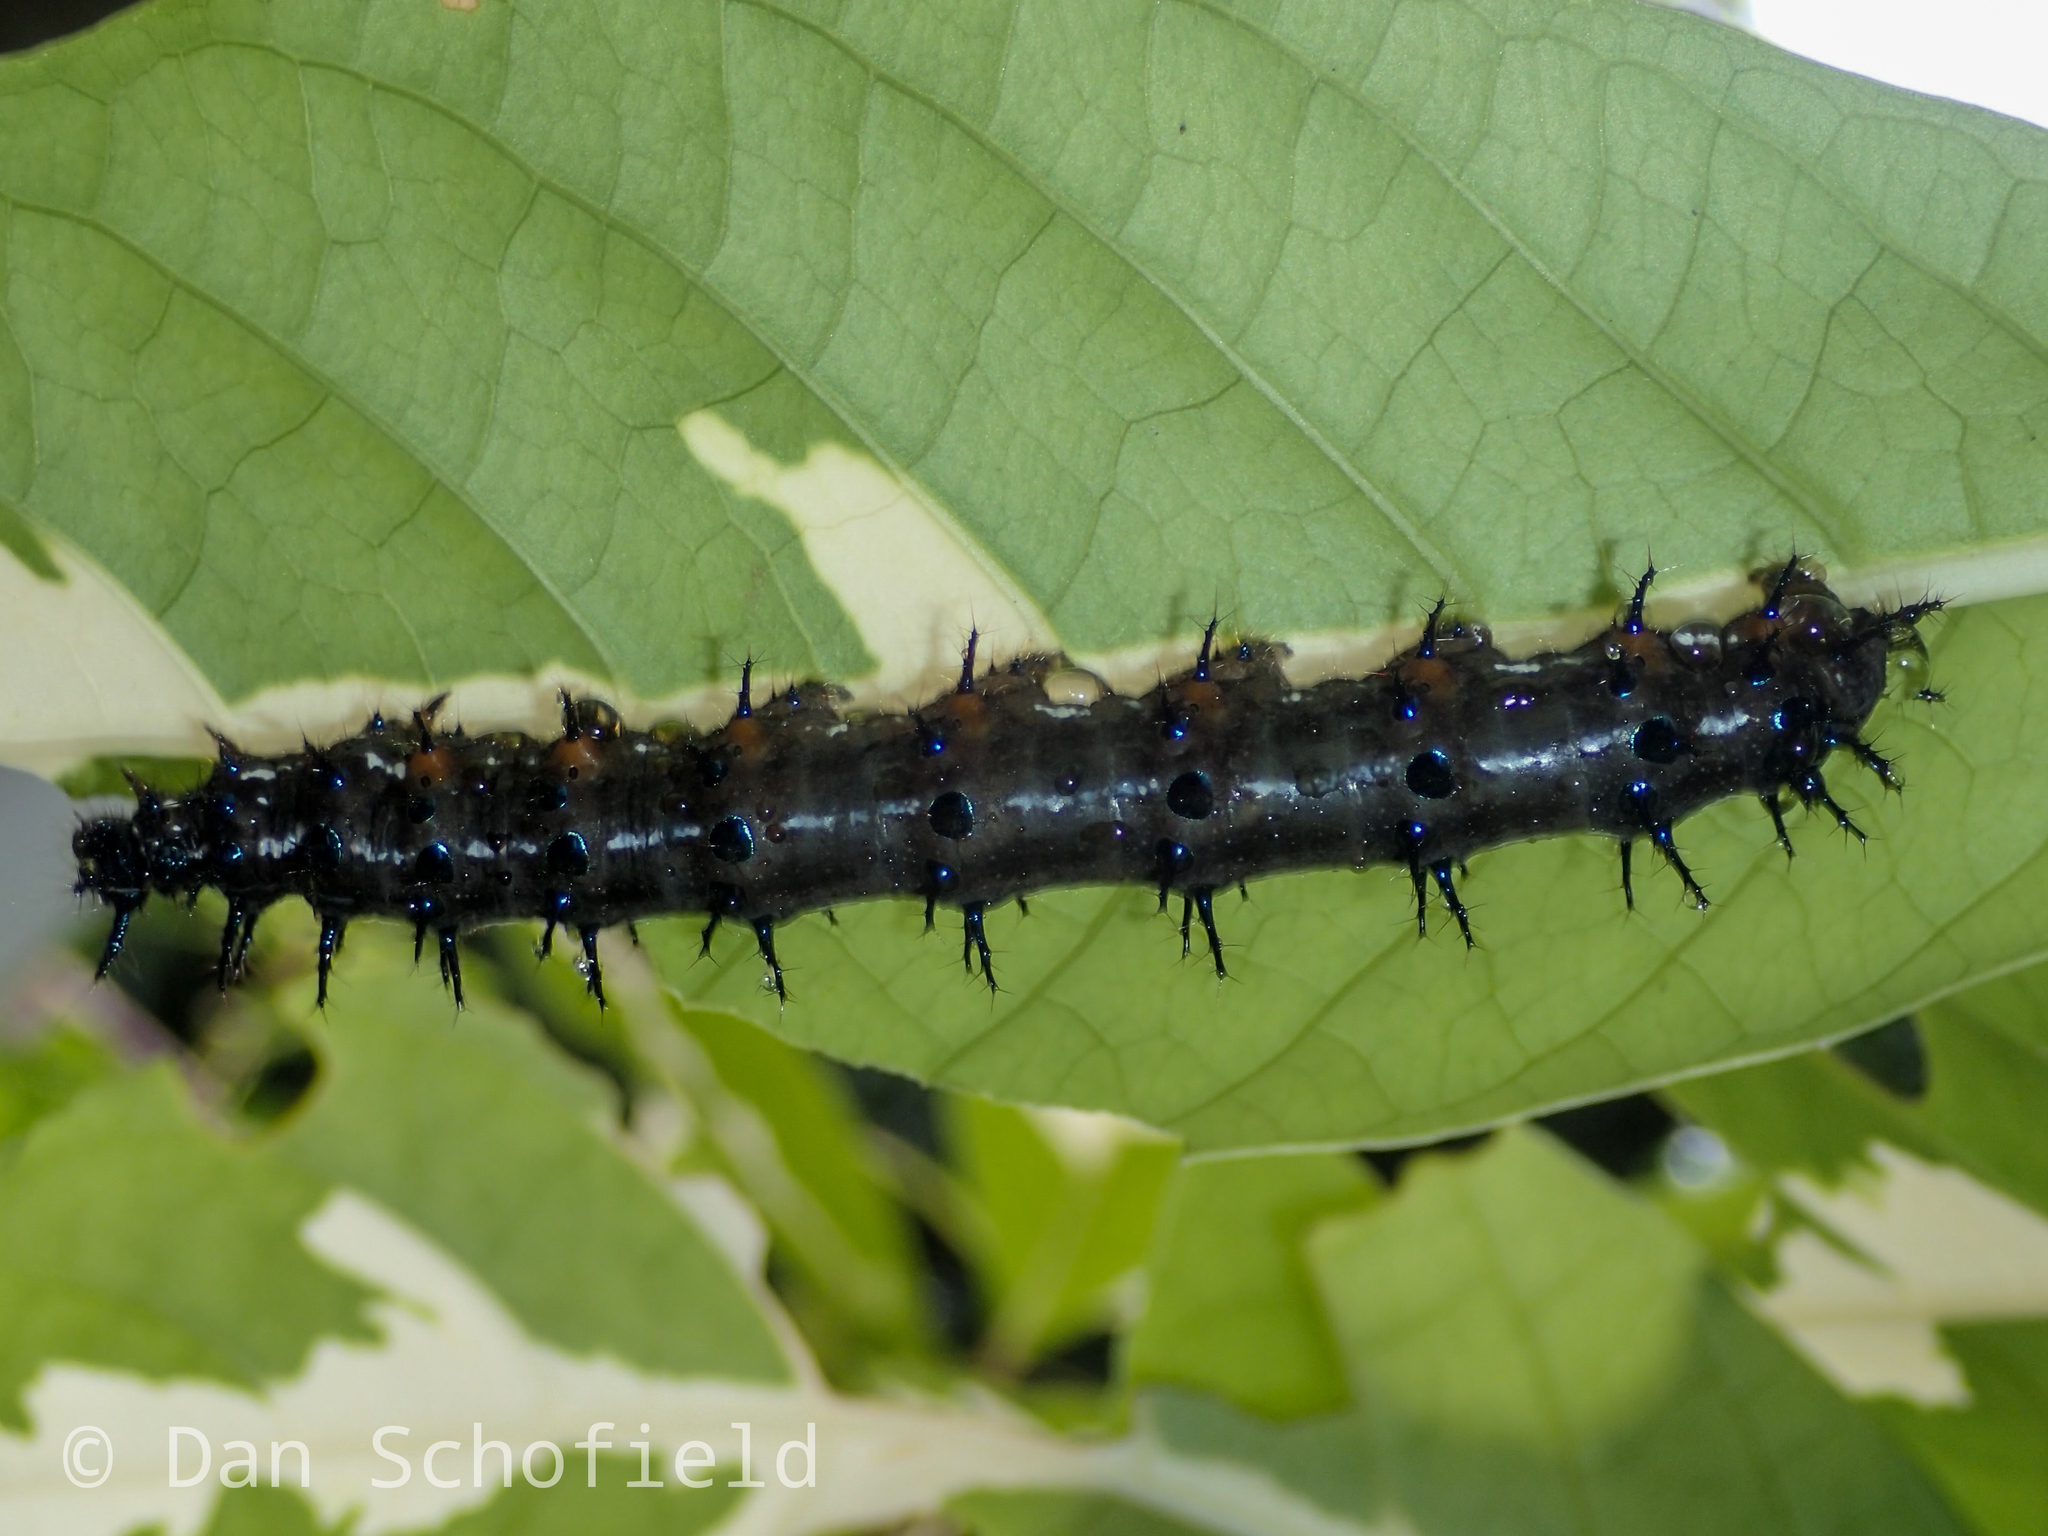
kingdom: Animalia
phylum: Arthropoda
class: Insecta
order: Lepidoptera
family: Nymphalidae
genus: Doleschallia
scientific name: Doleschallia bisaltide
